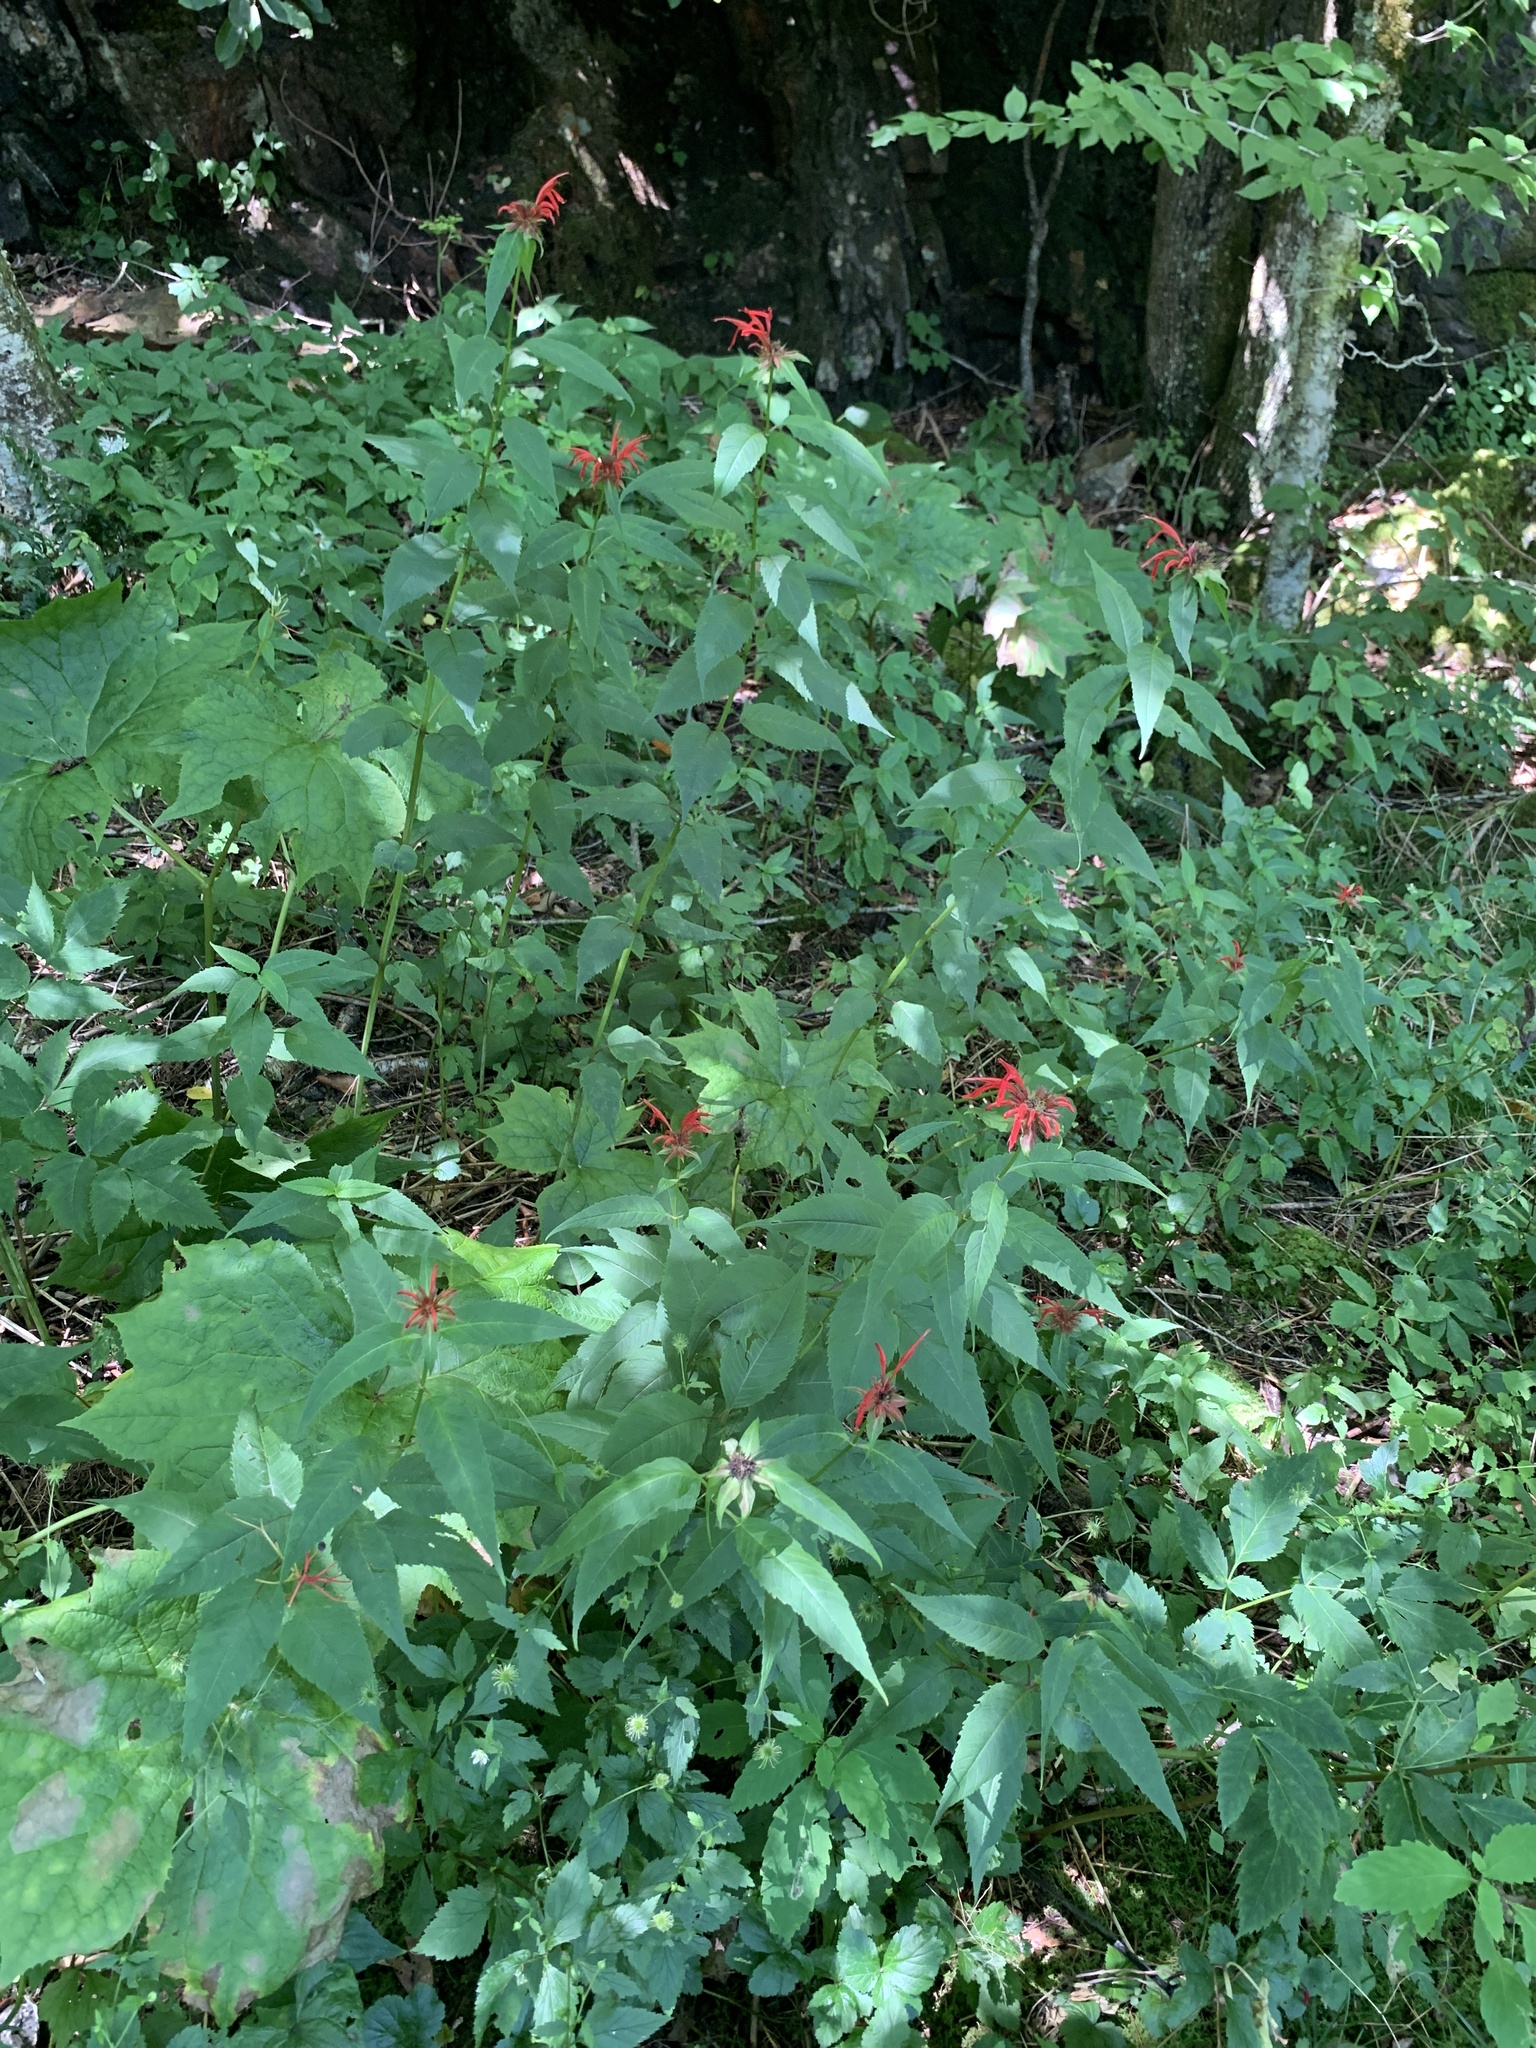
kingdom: Plantae
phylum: Tracheophyta
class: Magnoliopsida
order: Lamiales
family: Lamiaceae
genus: Monarda
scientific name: Monarda didyma
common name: Beebalm
